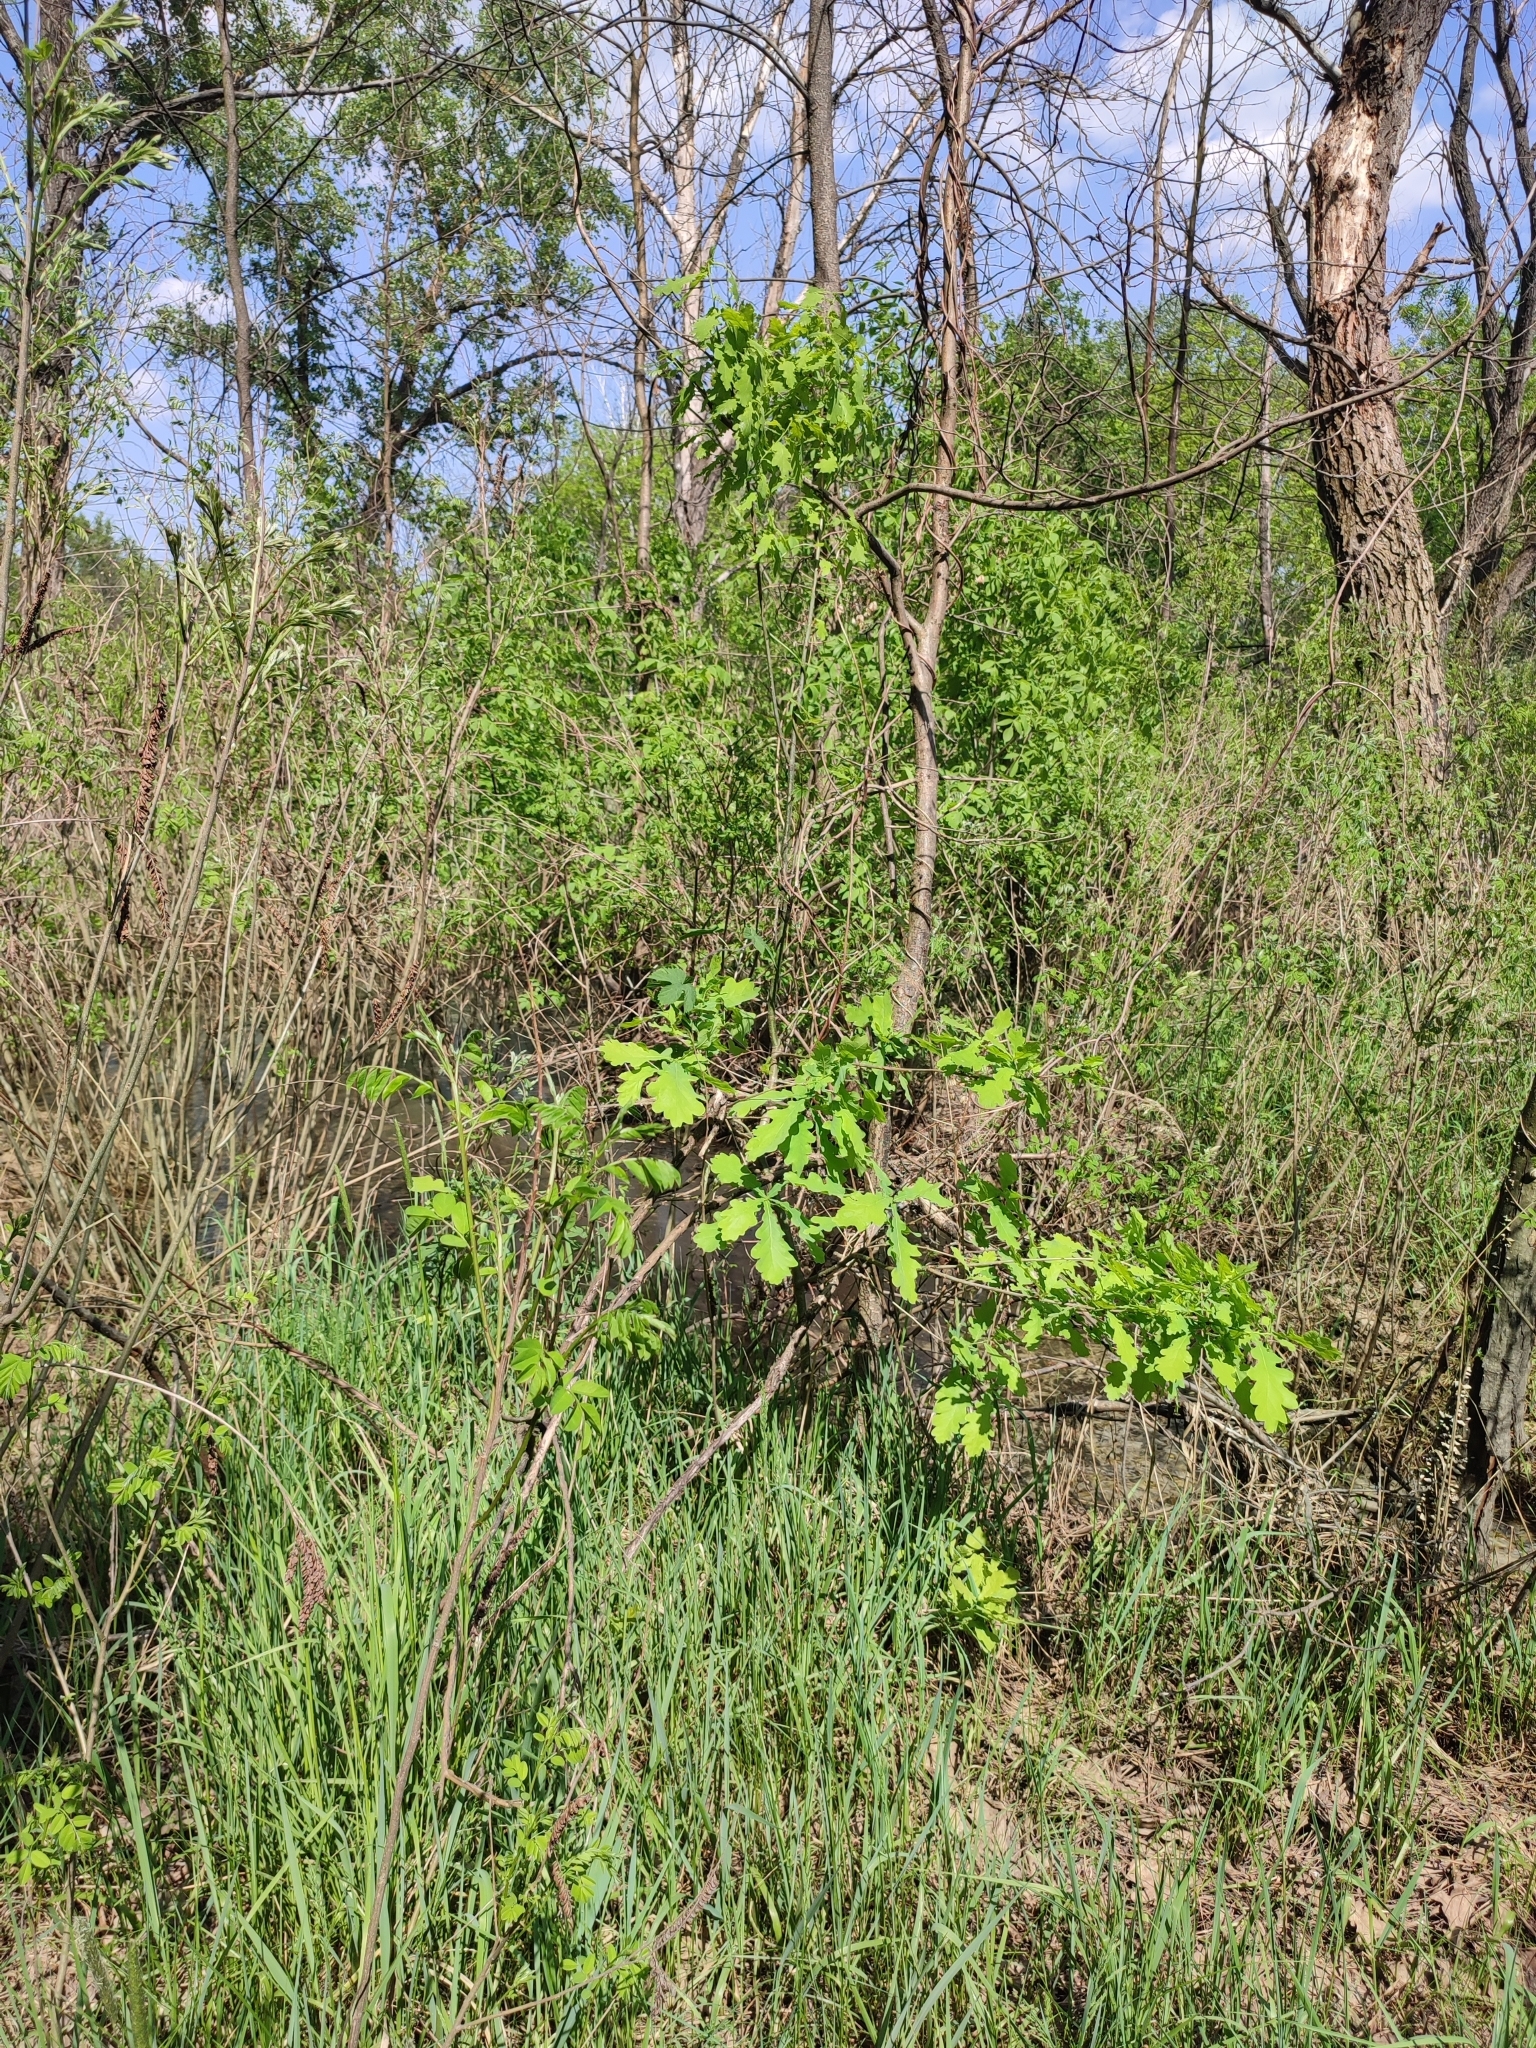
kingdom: Plantae
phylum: Tracheophyta
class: Magnoliopsida
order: Fagales
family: Fagaceae
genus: Quercus
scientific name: Quercus robur
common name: Pedunculate oak
